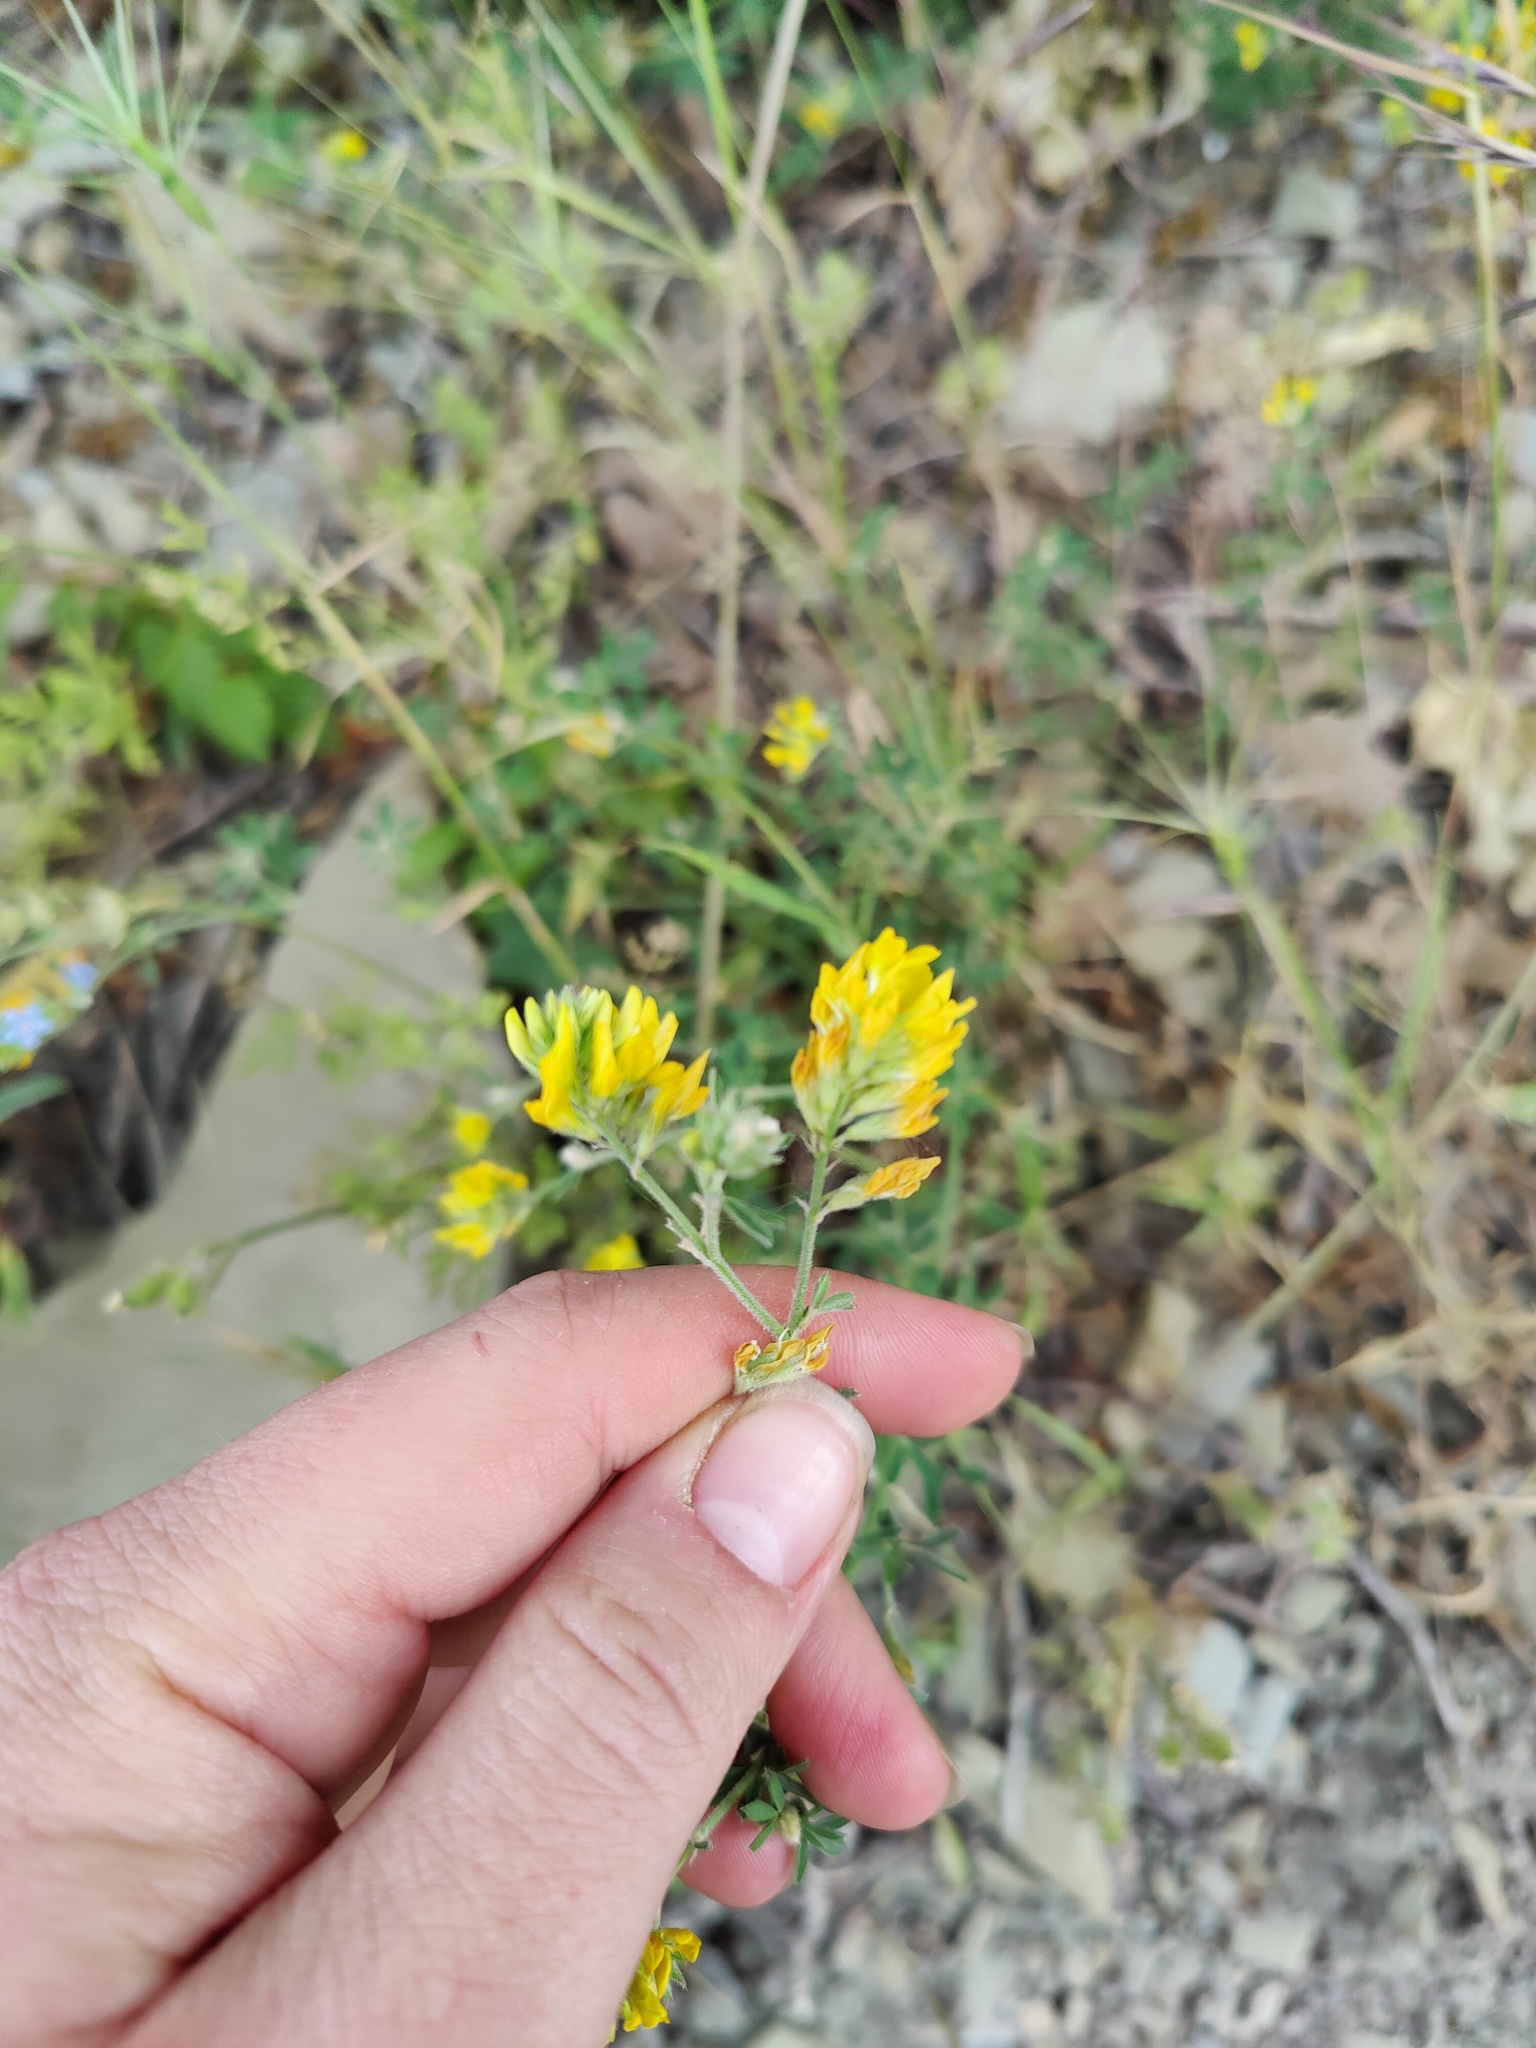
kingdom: Plantae
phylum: Tracheophyta
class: Magnoliopsida
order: Fabales
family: Fabaceae
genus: Medicago
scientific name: Medicago falcata
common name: Sickle medick
